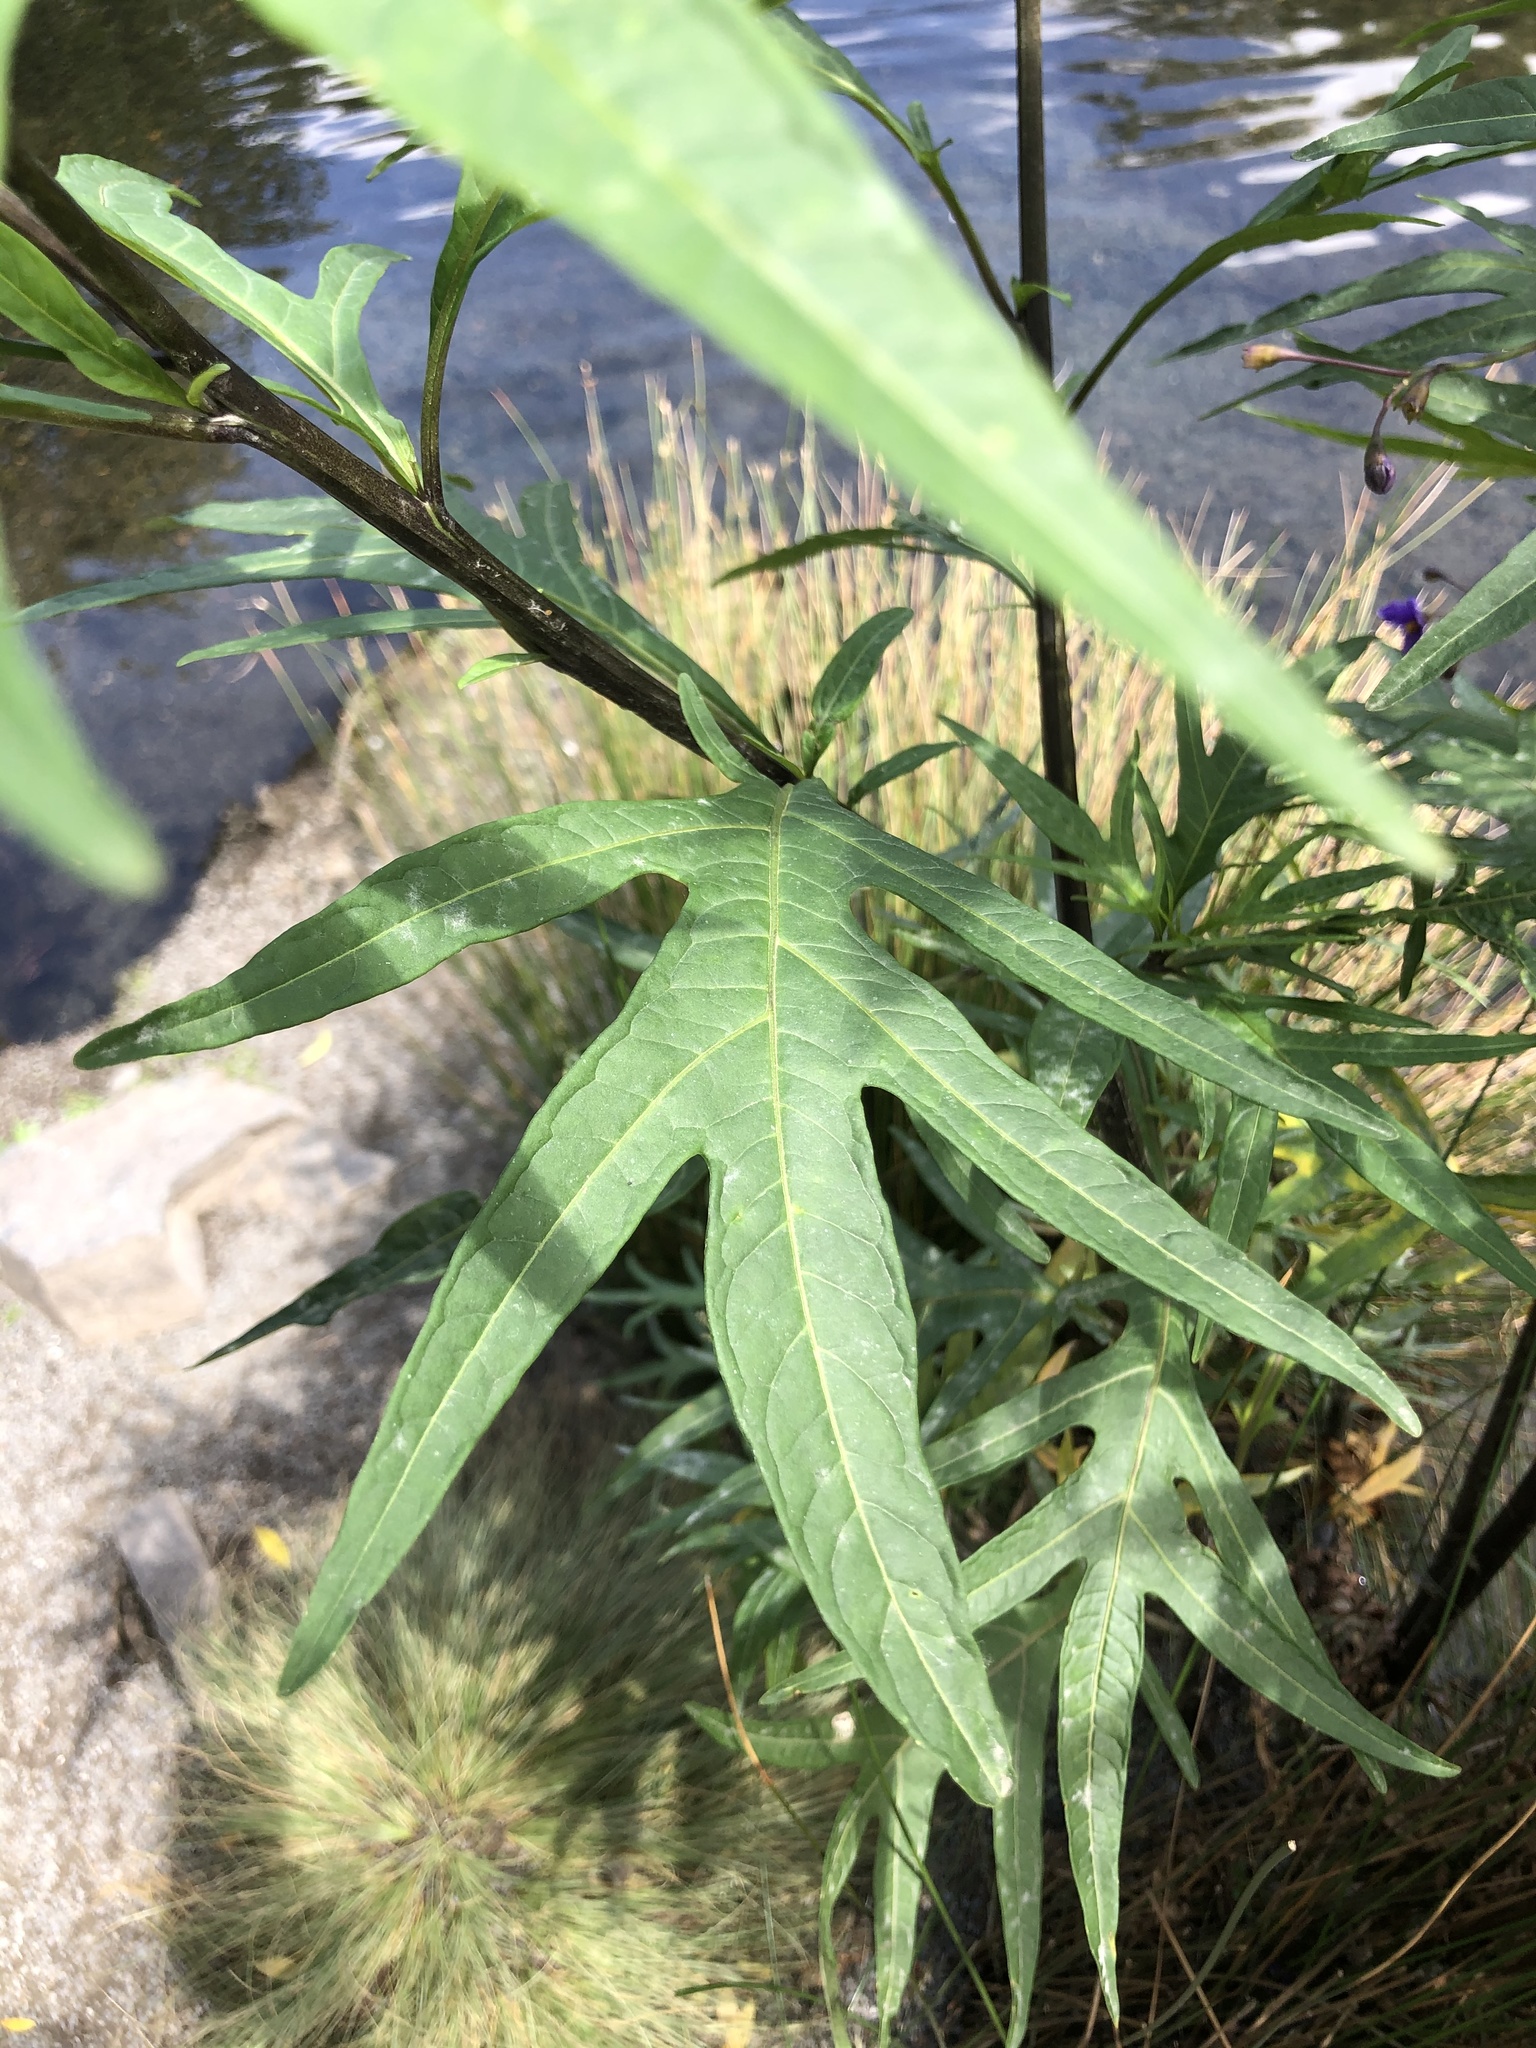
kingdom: Plantae
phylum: Tracheophyta
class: Magnoliopsida
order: Solanales
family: Solanaceae
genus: Solanum
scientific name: Solanum laciniatum
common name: Kangaroo-apple
